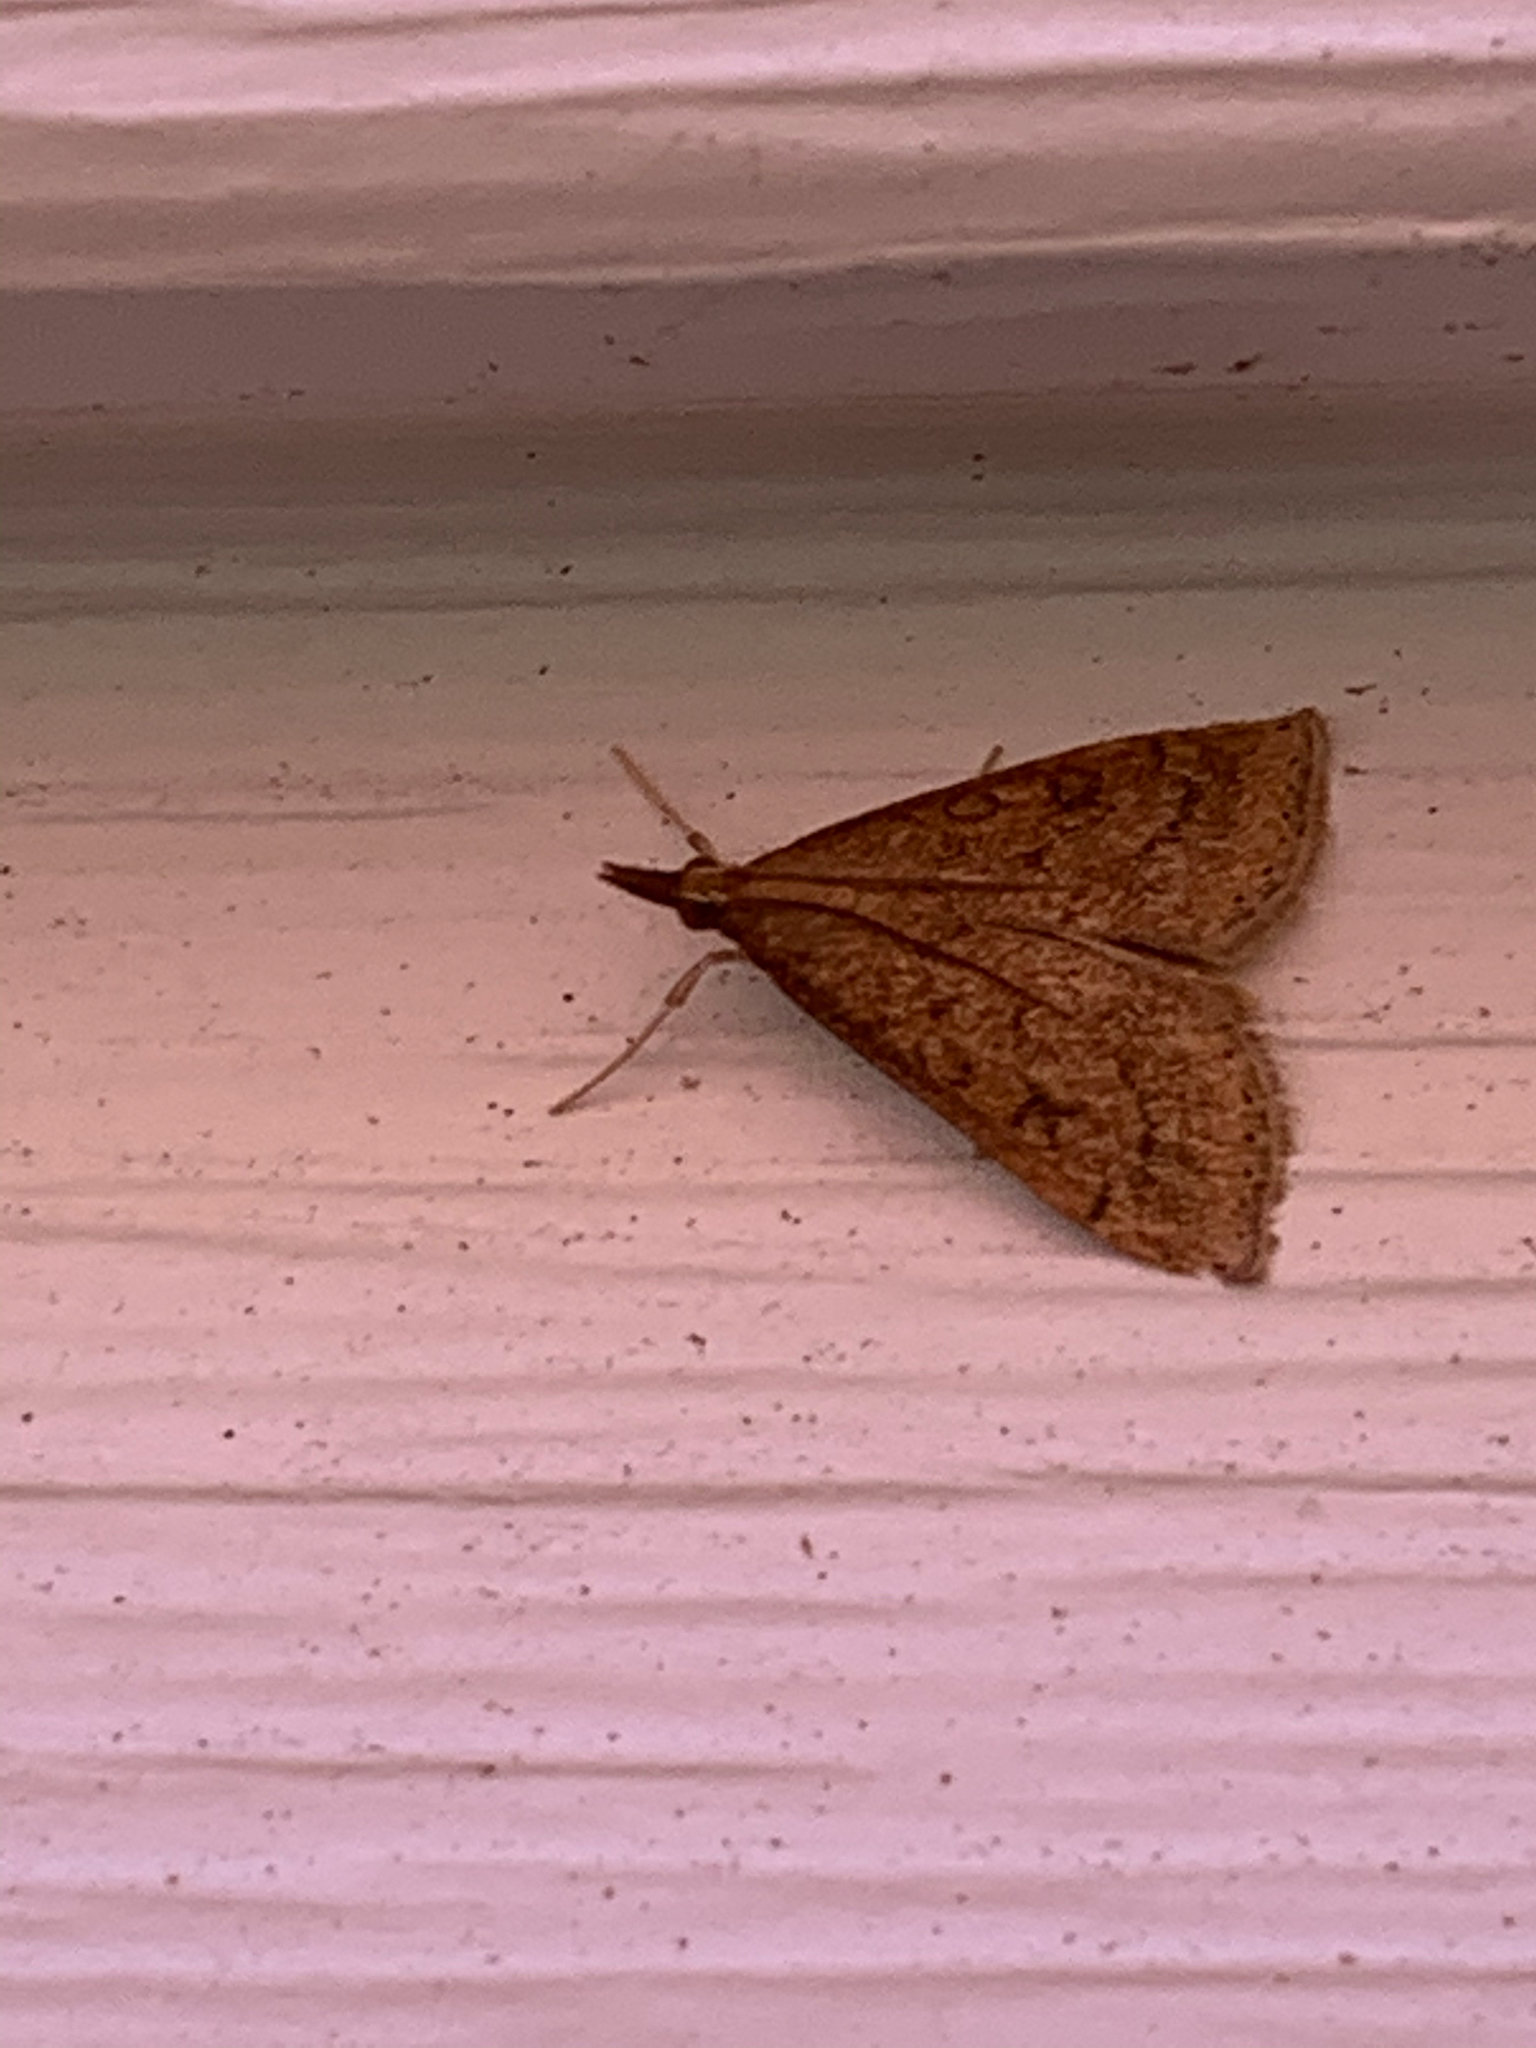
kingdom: Animalia
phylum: Arthropoda
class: Insecta
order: Lepidoptera
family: Crambidae
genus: Udea
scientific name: Udea rubigalis
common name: Celery leaftier moth
